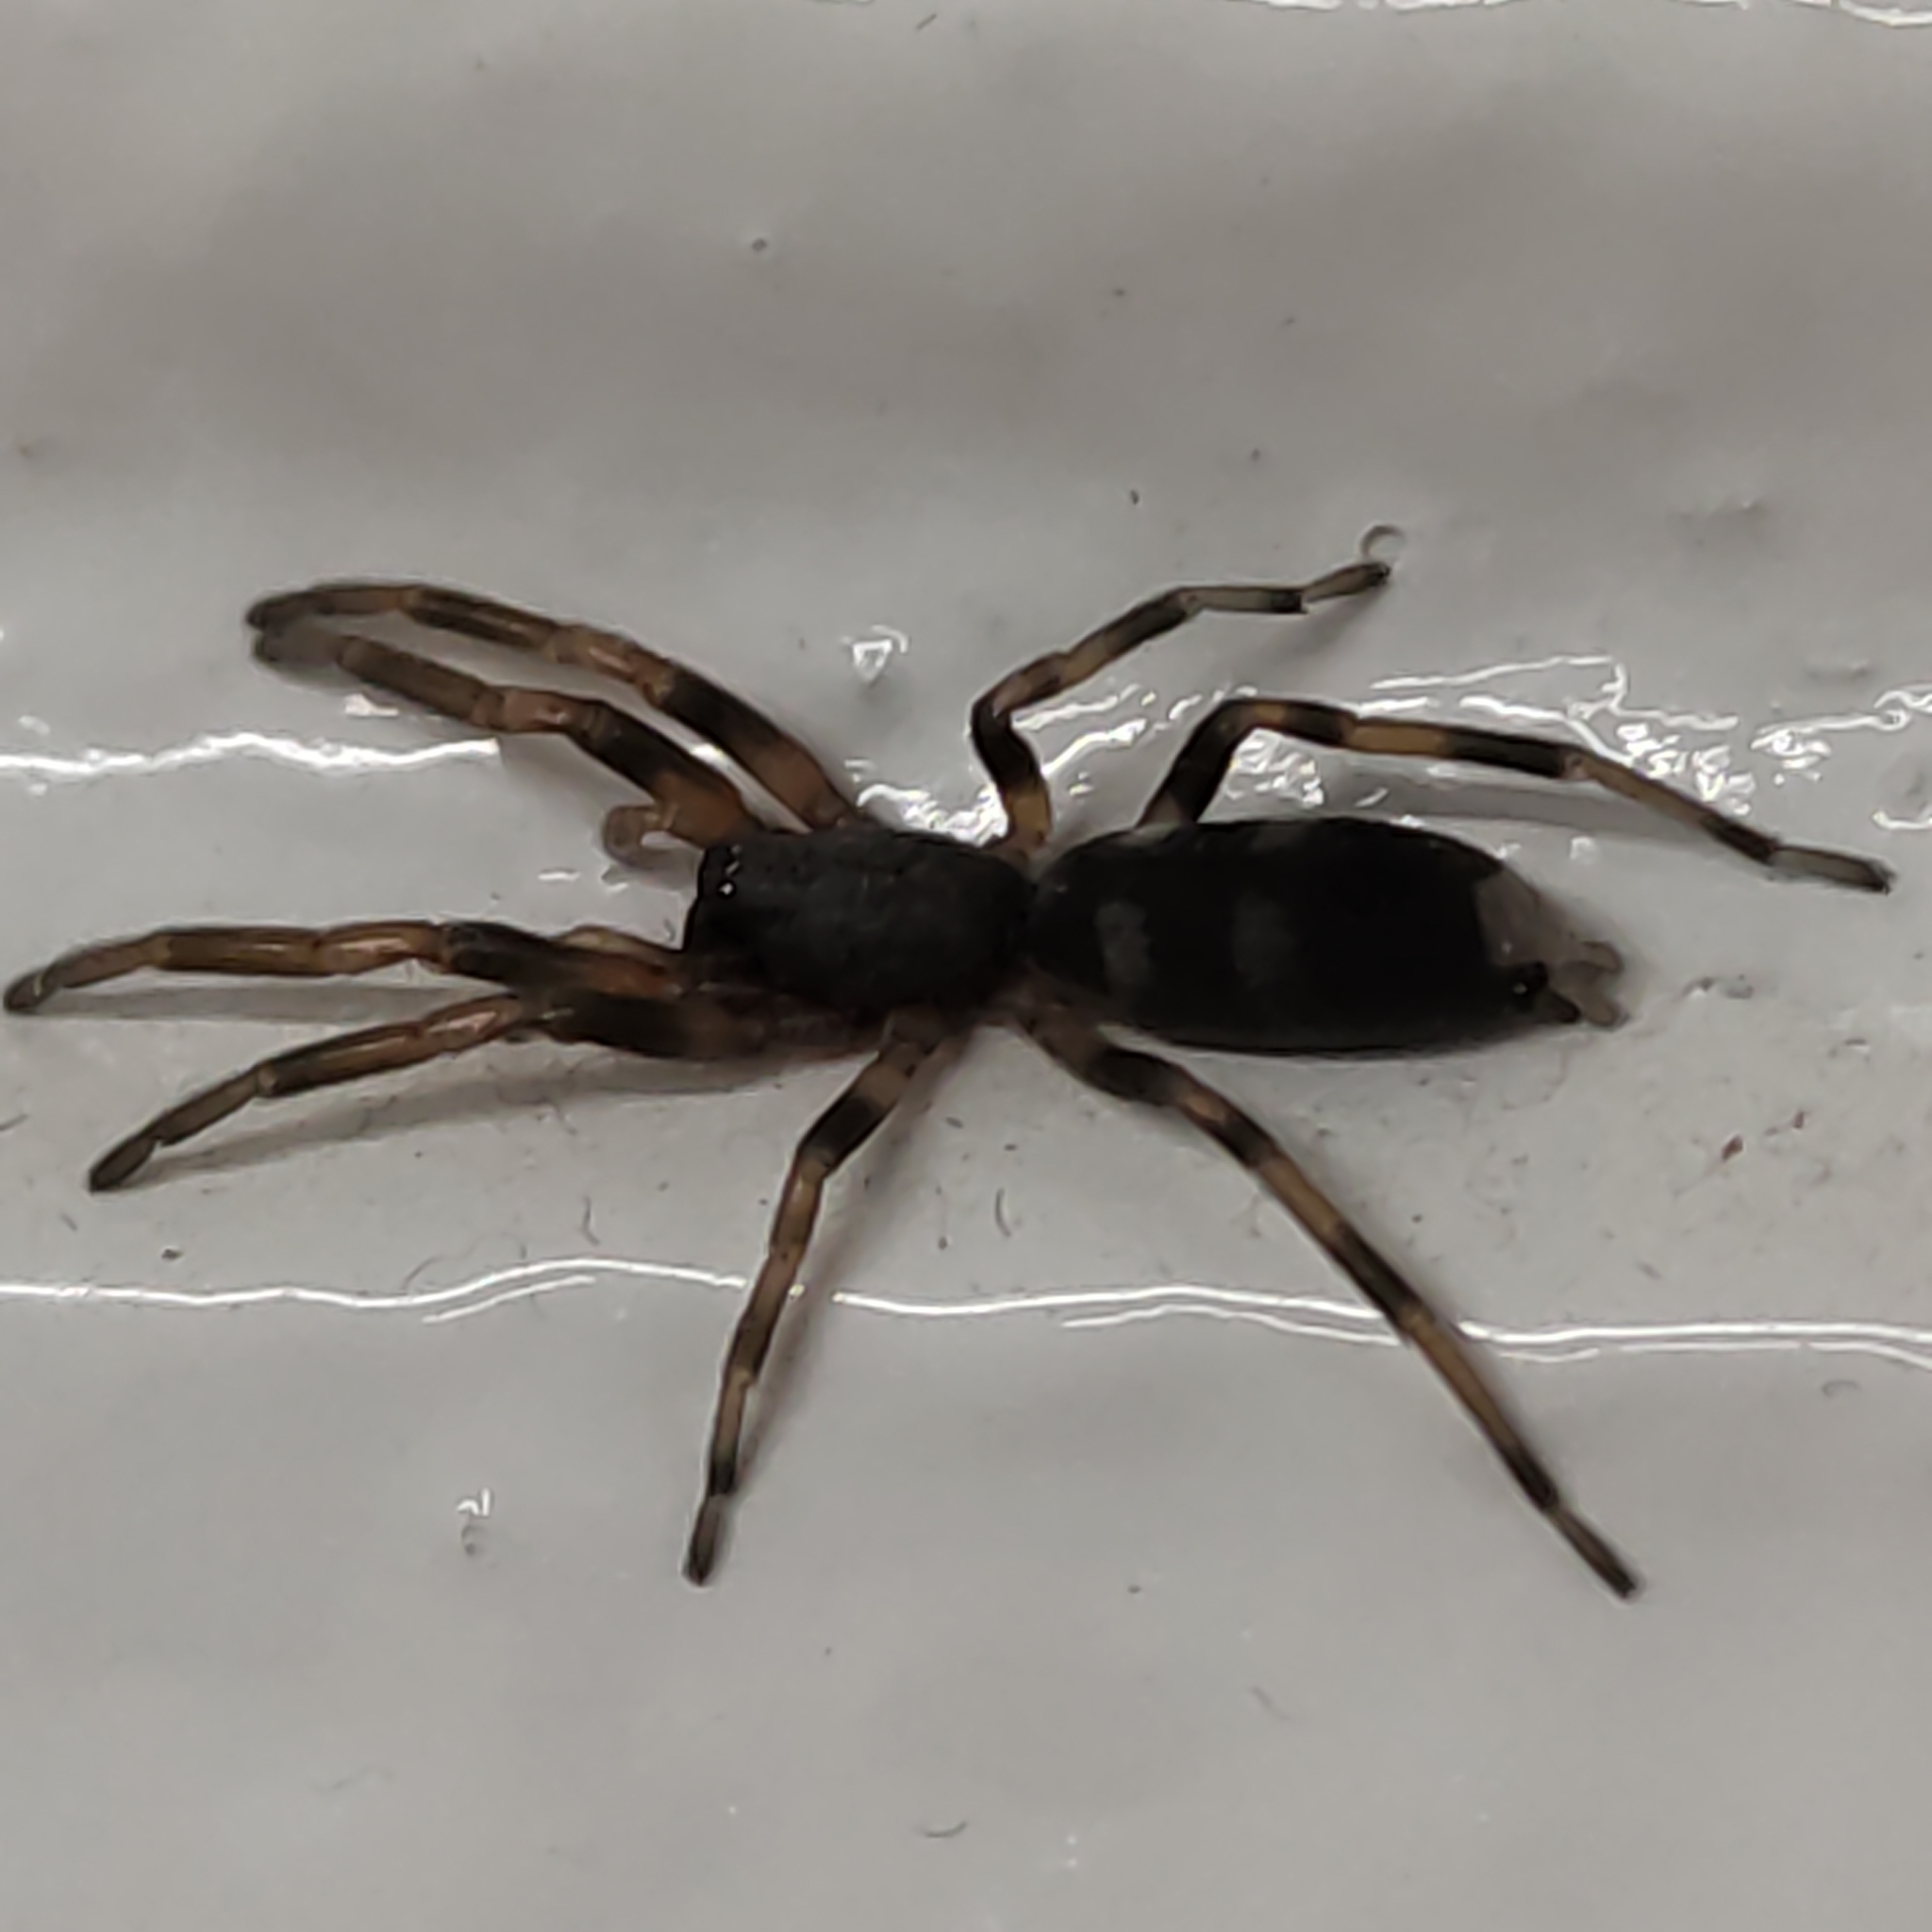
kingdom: Animalia
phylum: Arthropoda
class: Arachnida
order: Araneae
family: Lamponidae
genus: Lampona
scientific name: Lampona cylindrata
